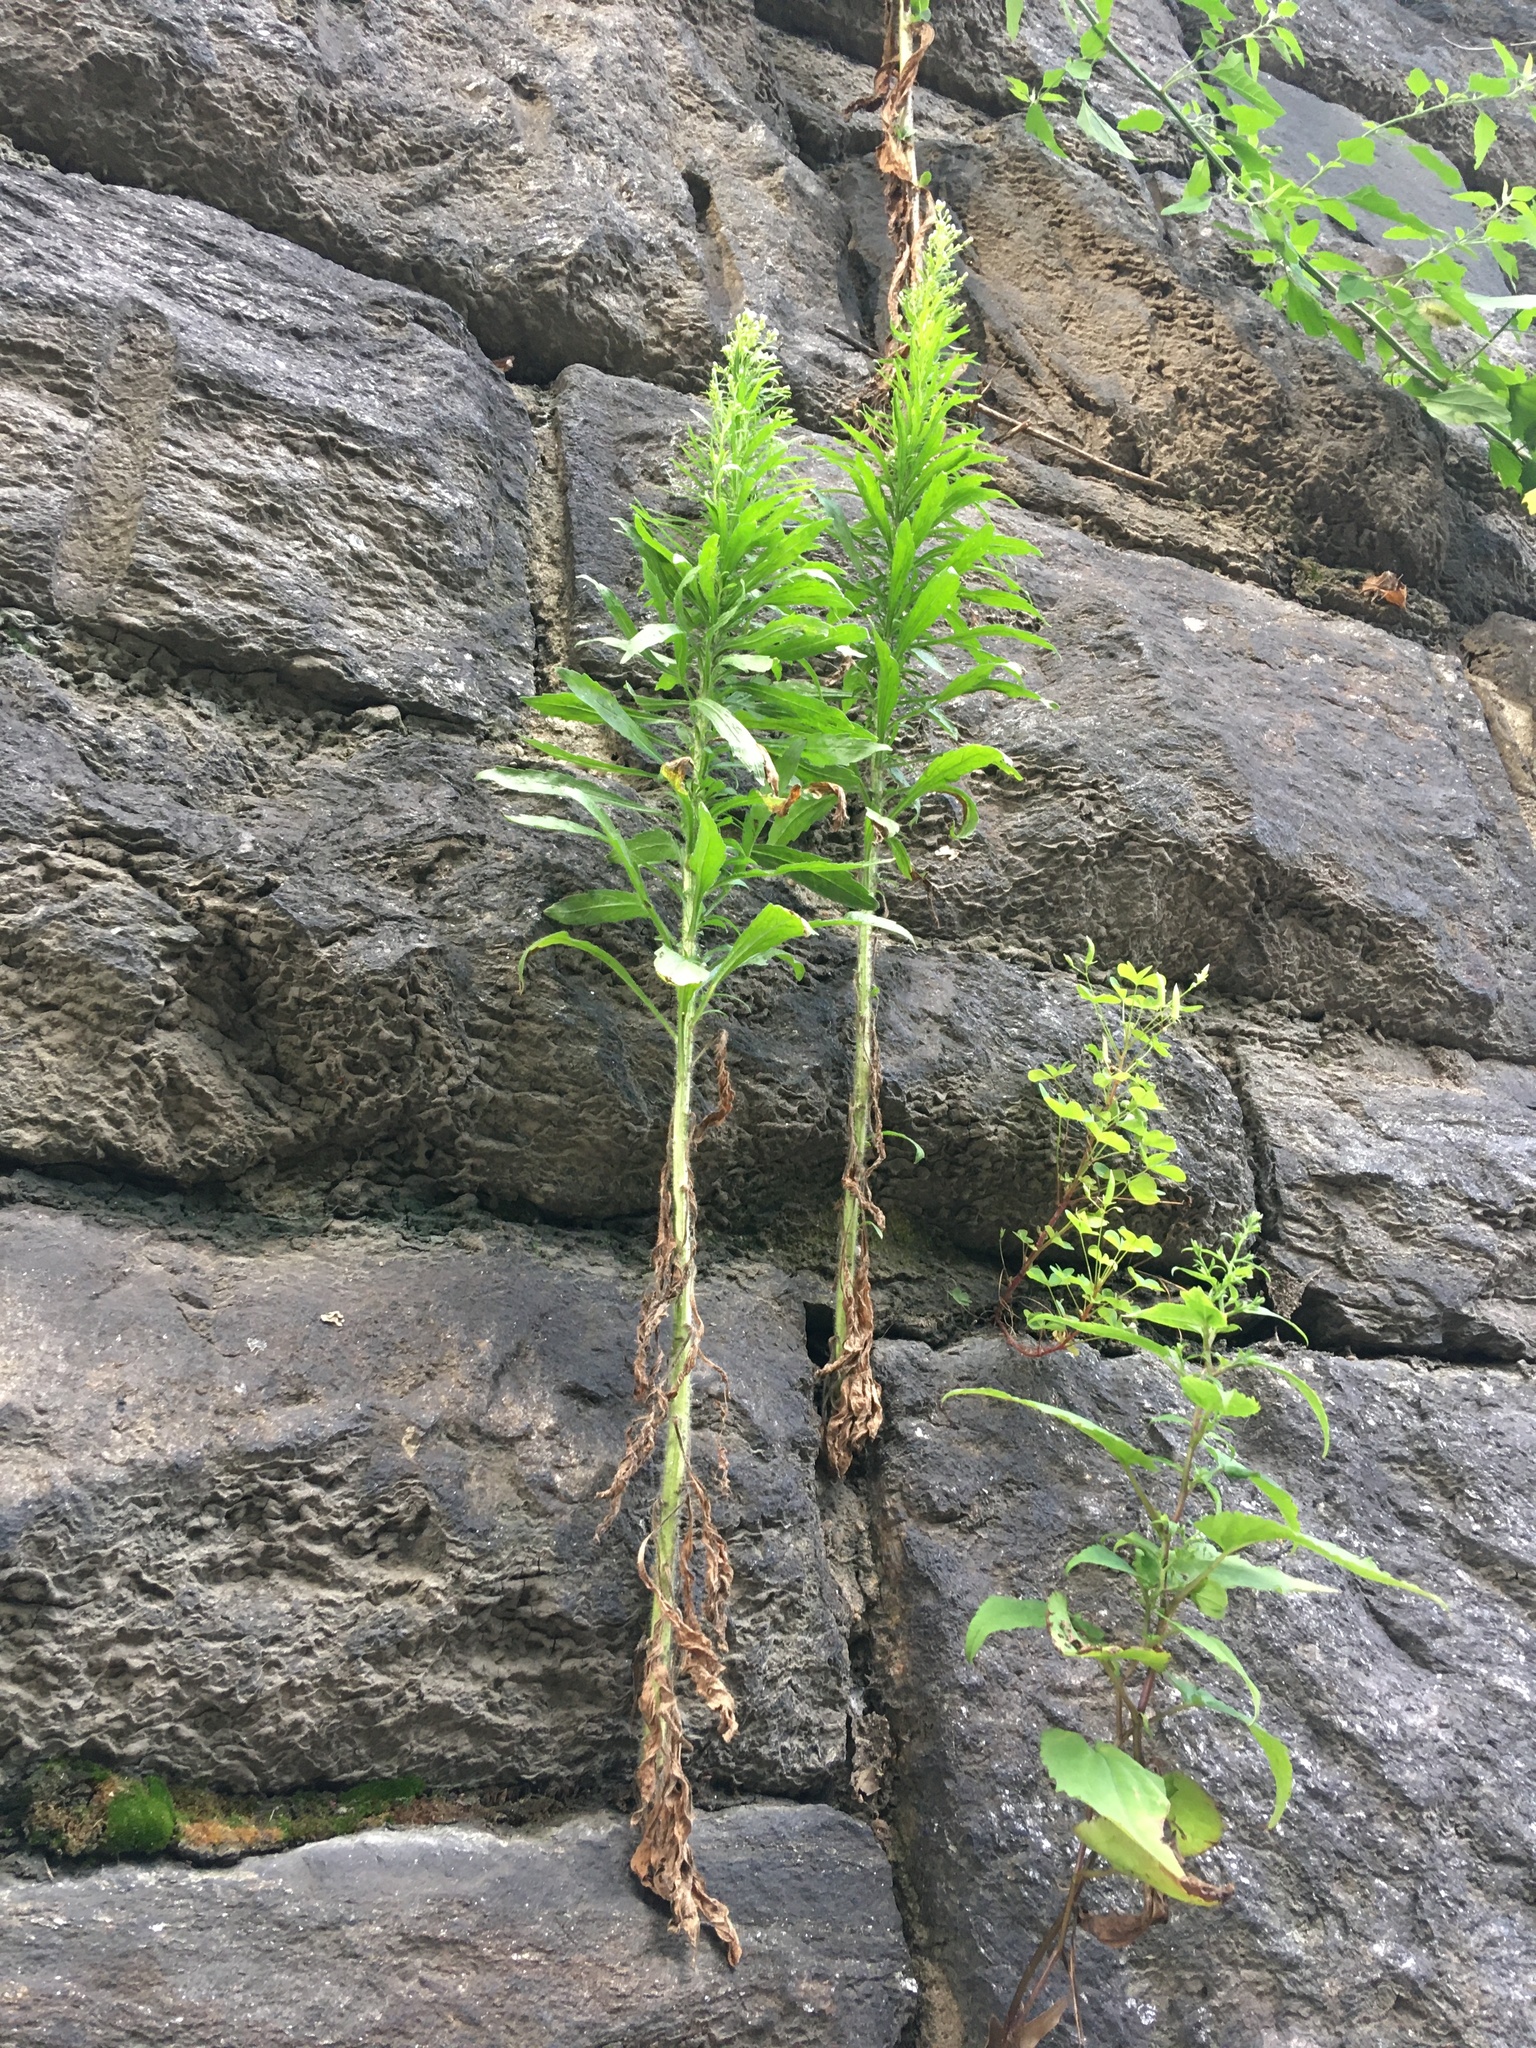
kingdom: Plantae
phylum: Tracheophyta
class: Magnoliopsida
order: Asterales
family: Asteraceae
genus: Erigeron
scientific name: Erigeron canadensis
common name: Canadian fleabane
